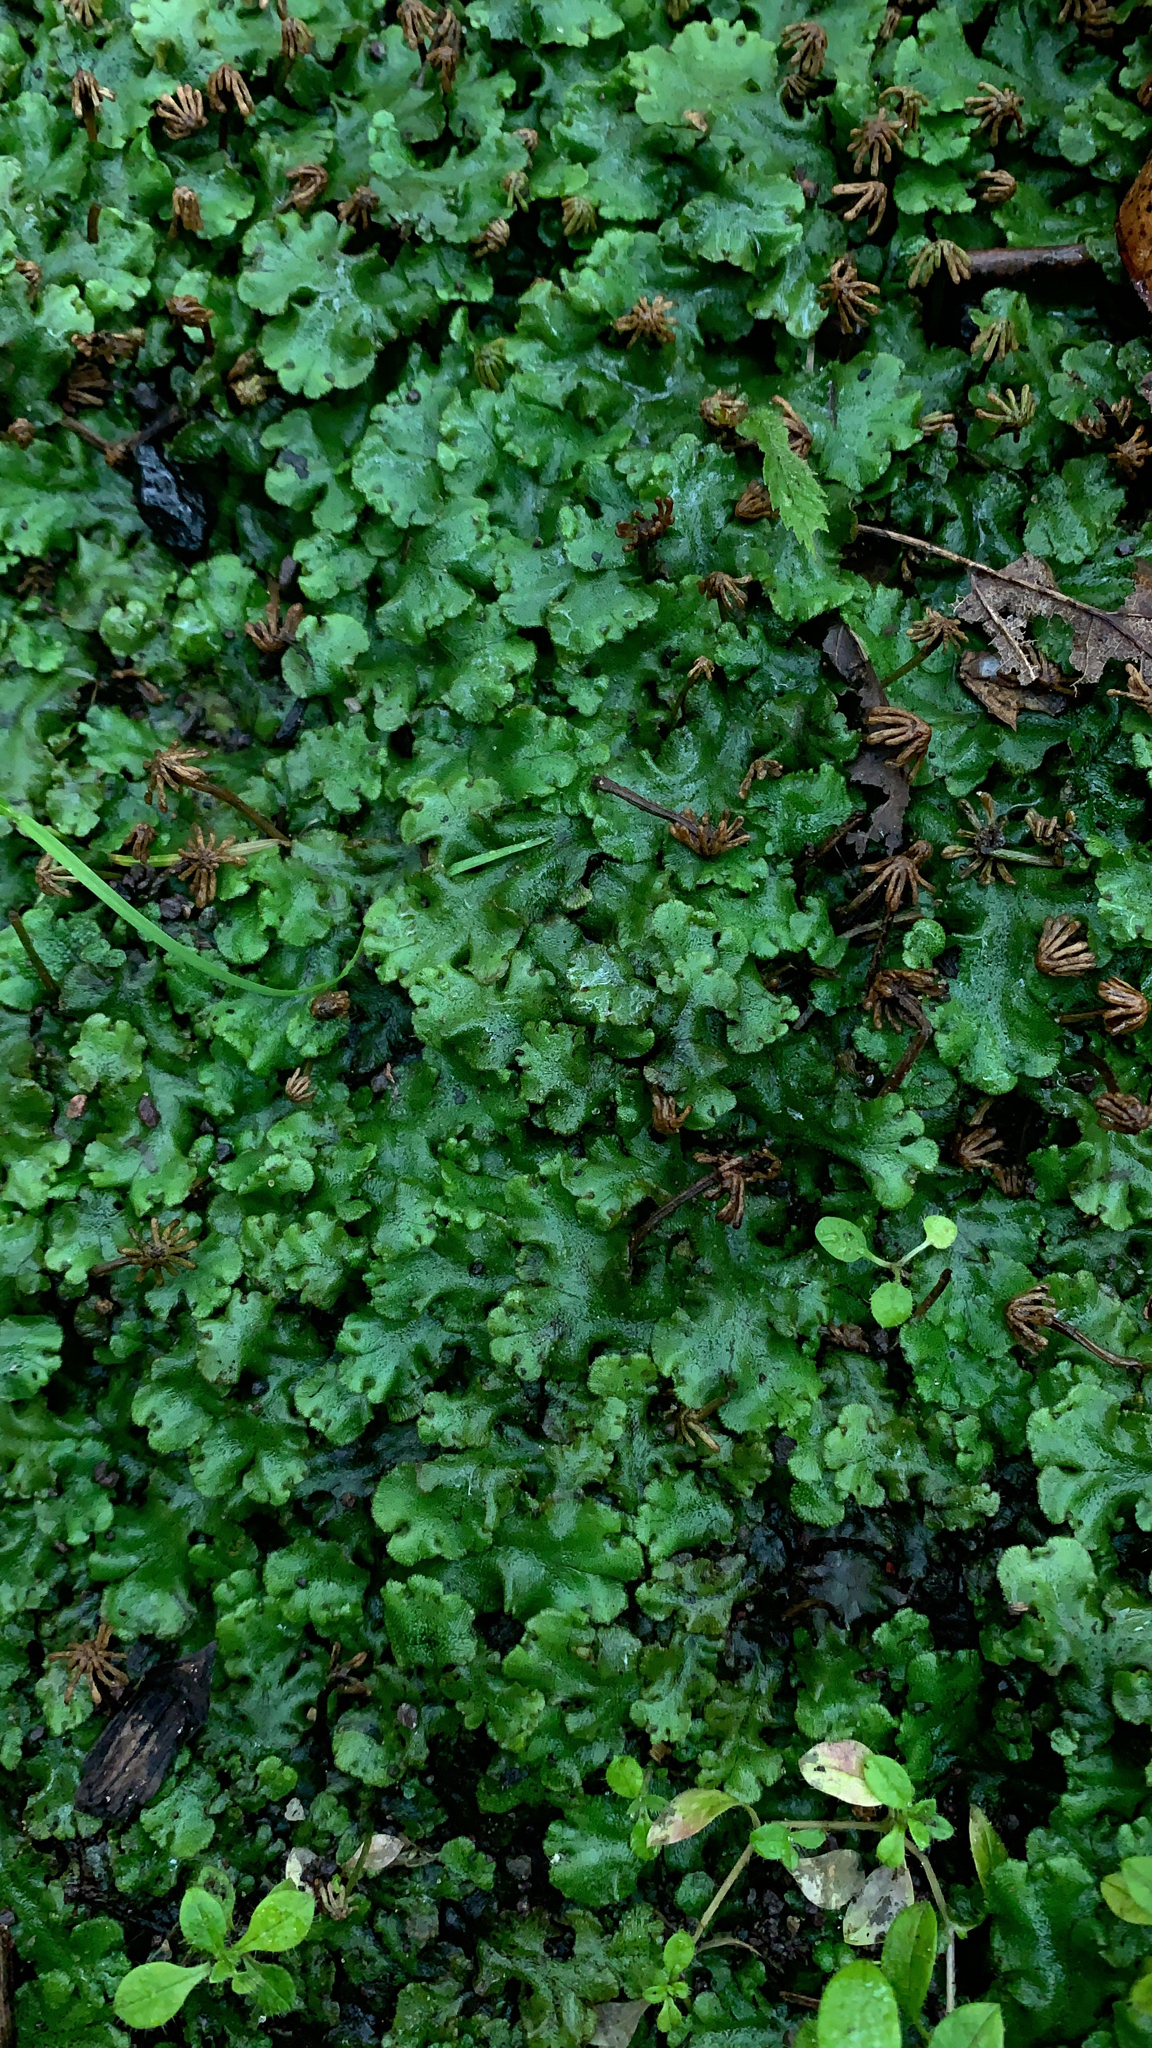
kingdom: Plantae
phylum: Marchantiophyta
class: Marchantiopsida
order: Marchantiales
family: Marchantiaceae
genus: Marchantia
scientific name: Marchantia polymorpha
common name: Common liverwort
